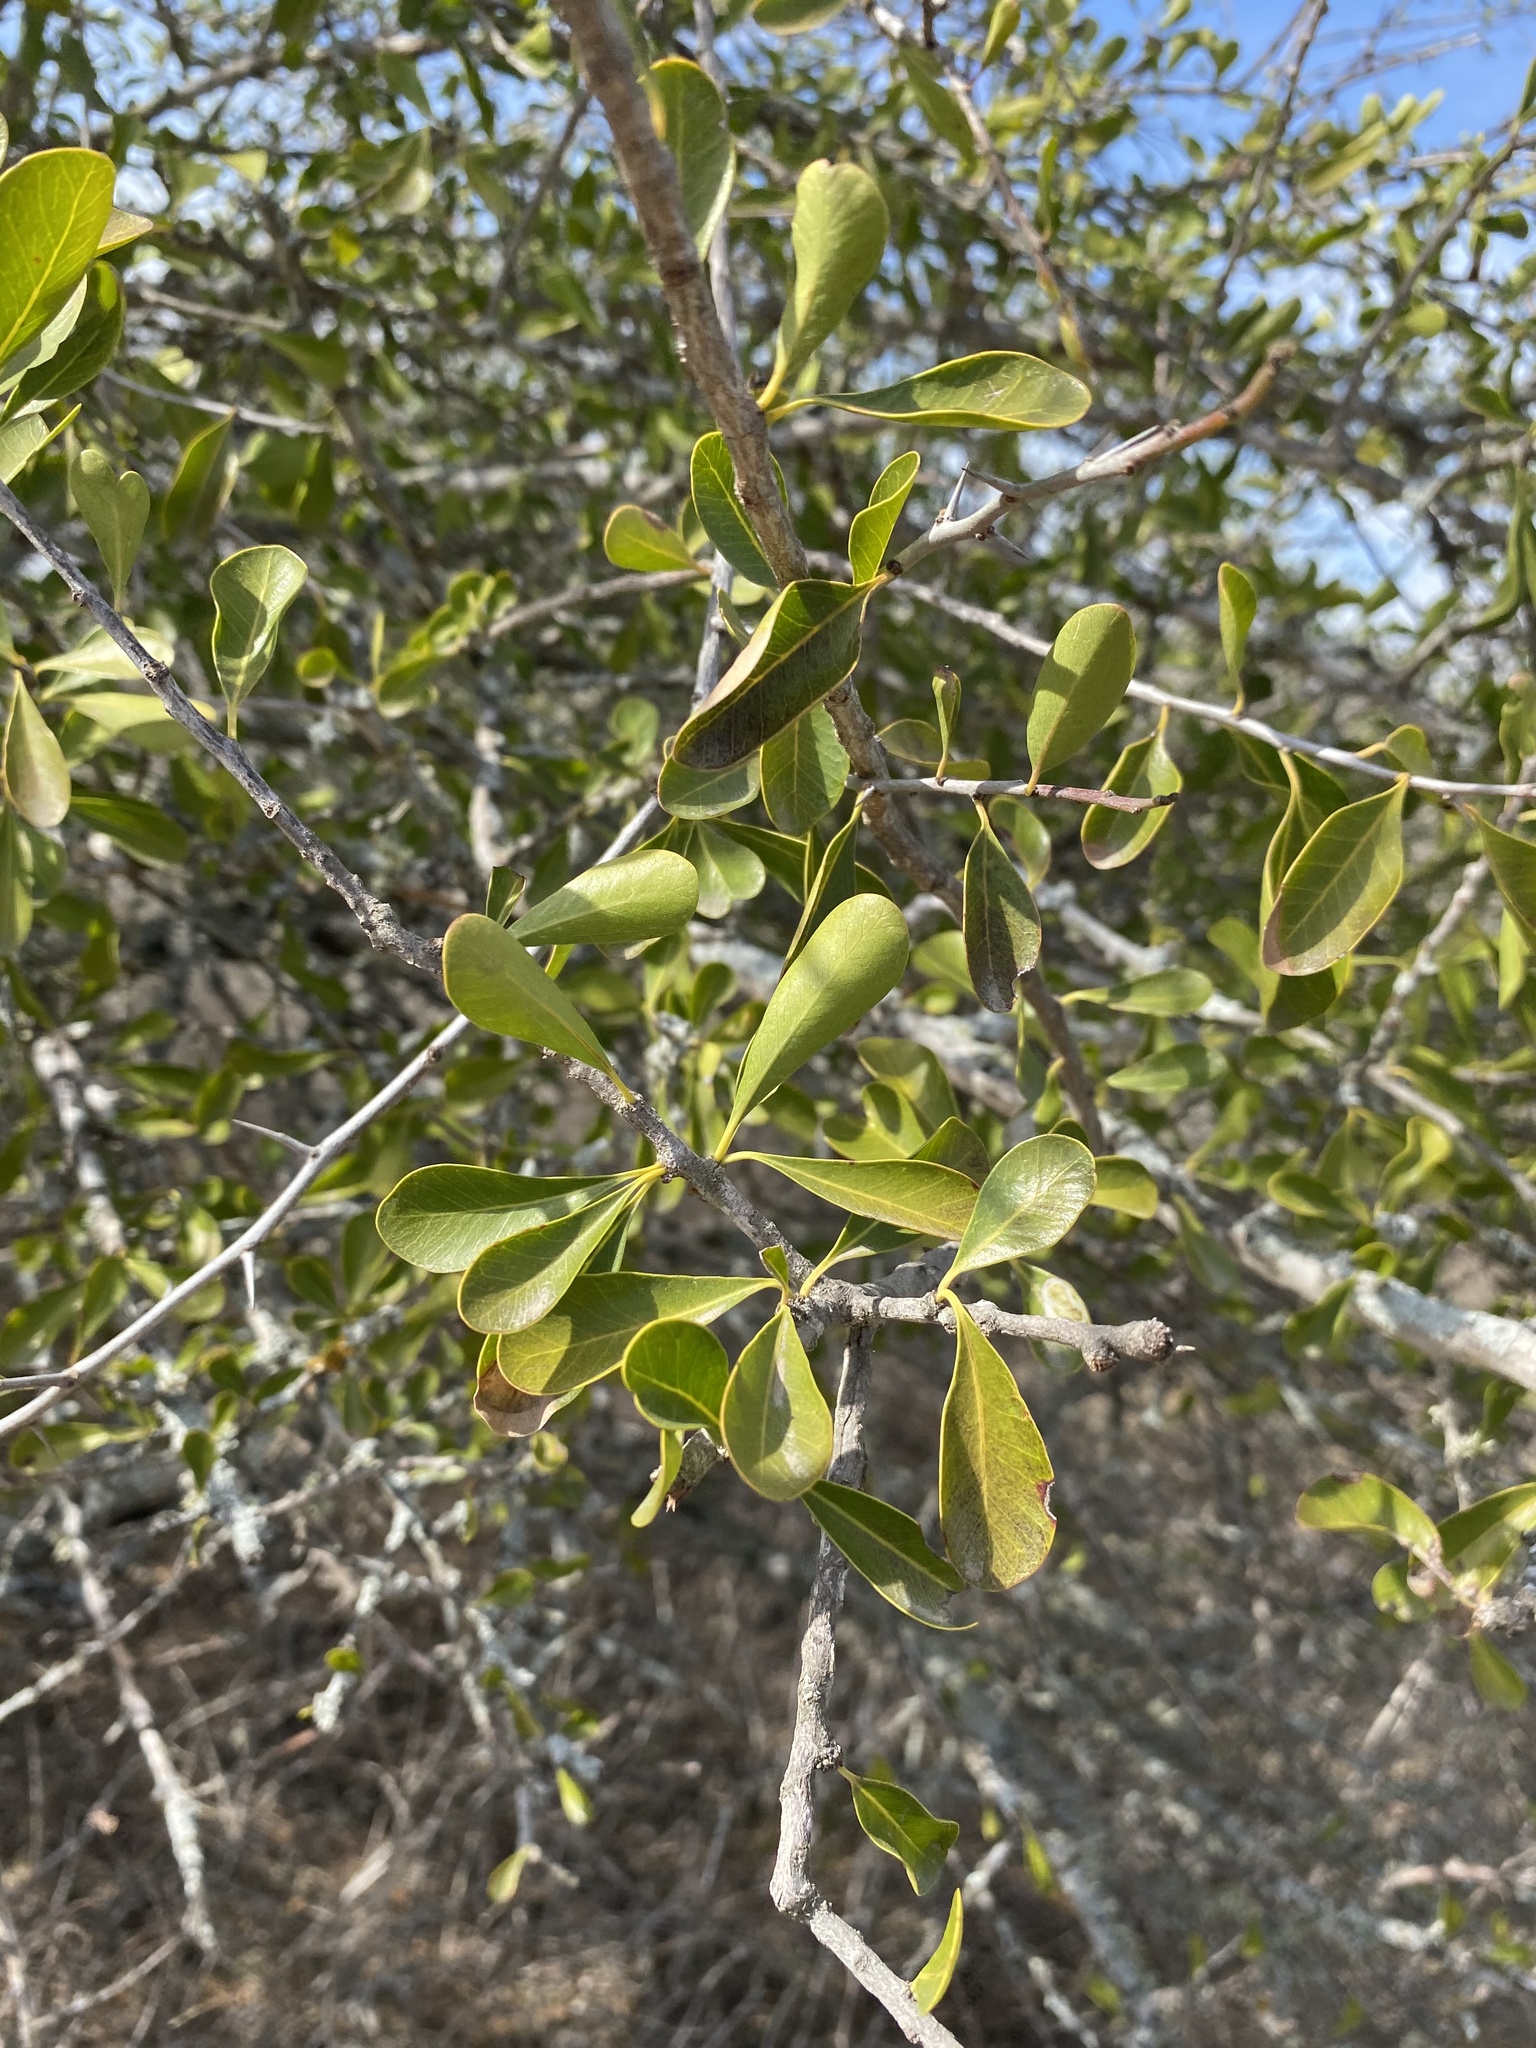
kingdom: Plantae
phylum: Tracheophyta
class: Magnoliopsida
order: Ericales
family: Sapotaceae
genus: Sideroxylon
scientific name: Sideroxylon celastrinum
